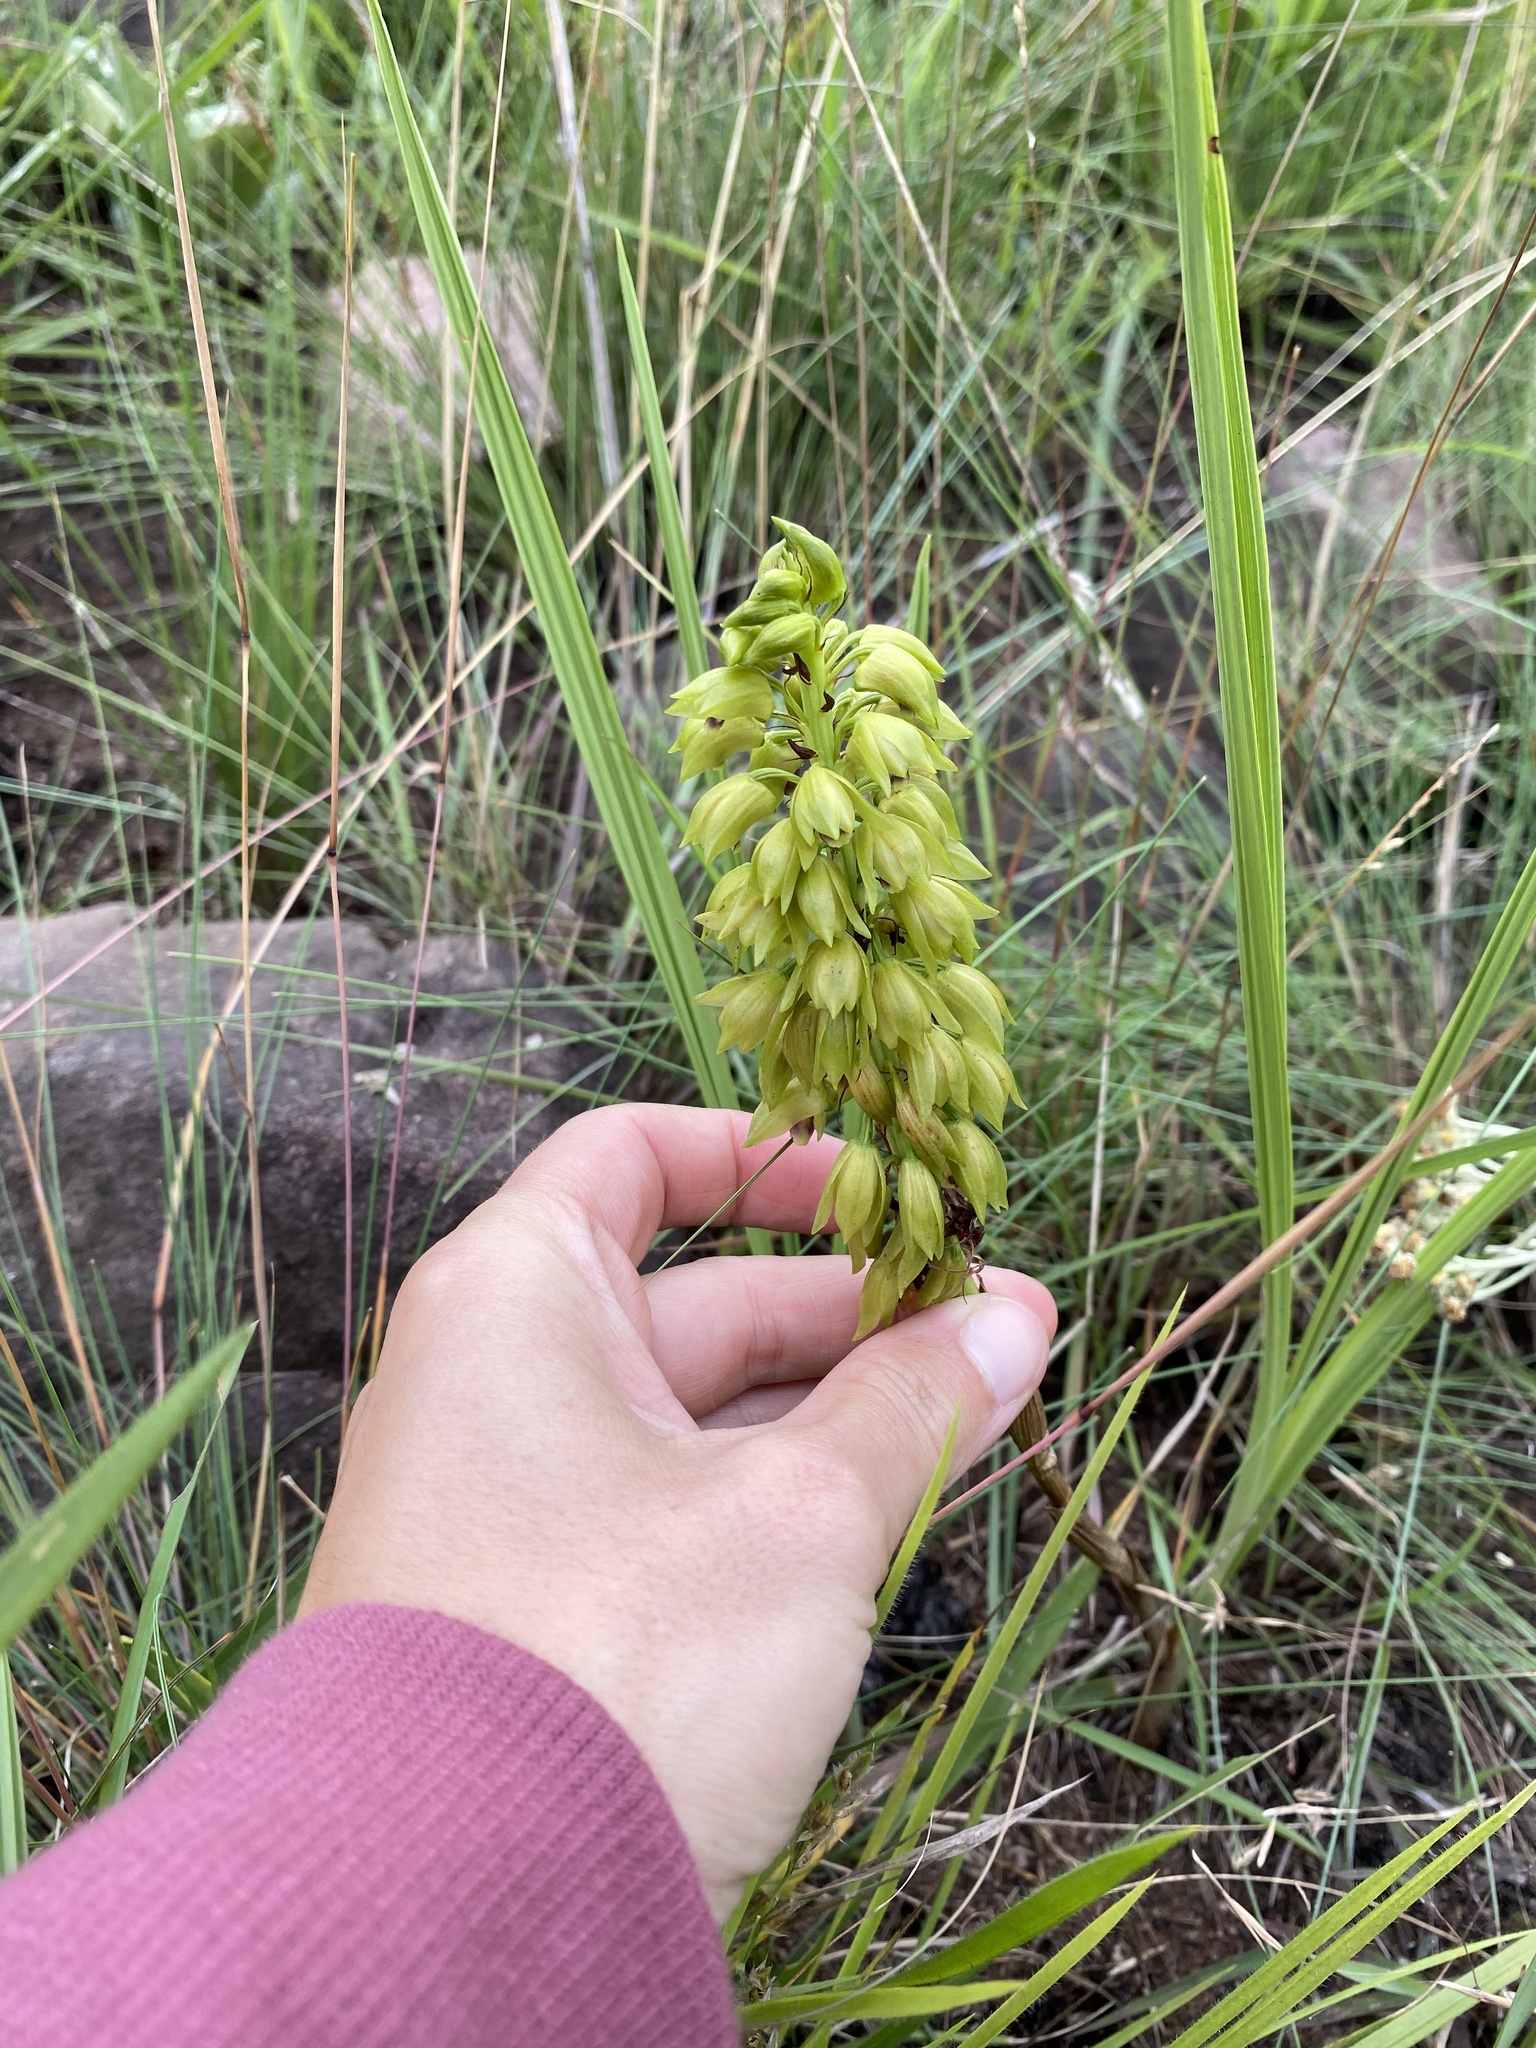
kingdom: Plantae
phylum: Tracheophyta
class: Liliopsida
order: Asparagales
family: Orchidaceae
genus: Eulophia
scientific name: Eulophia foliosa
